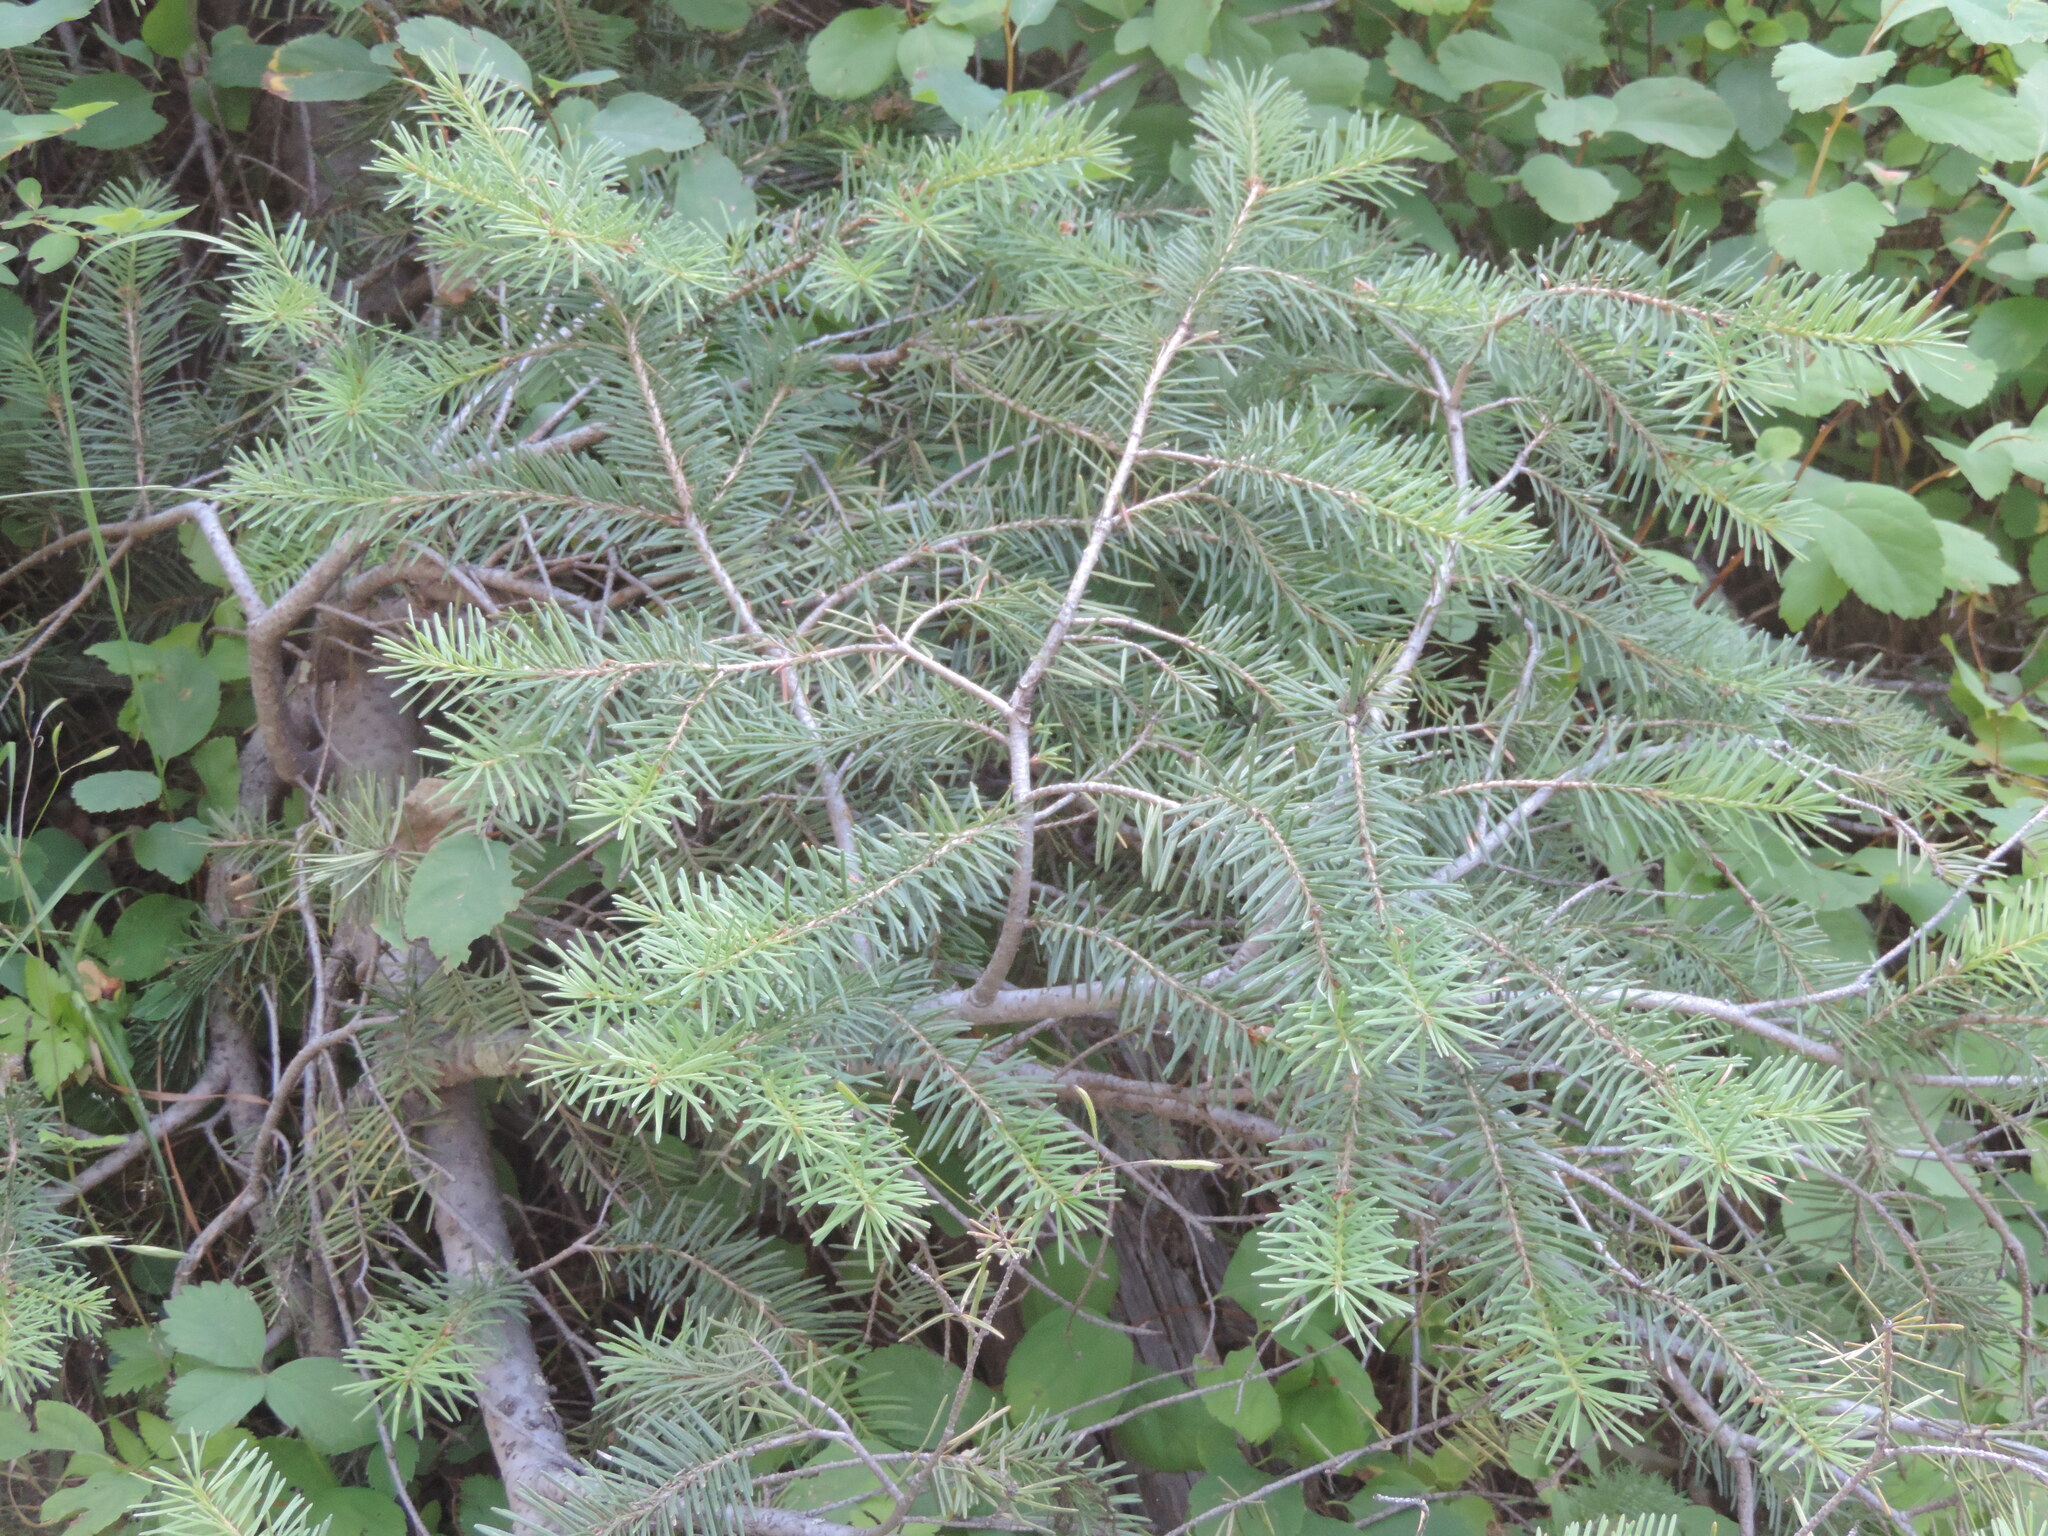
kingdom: Plantae
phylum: Tracheophyta
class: Pinopsida
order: Pinales
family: Pinaceae
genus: Pseudotsuga
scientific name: Pseudotsuga menziesii
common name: Douglas fir
